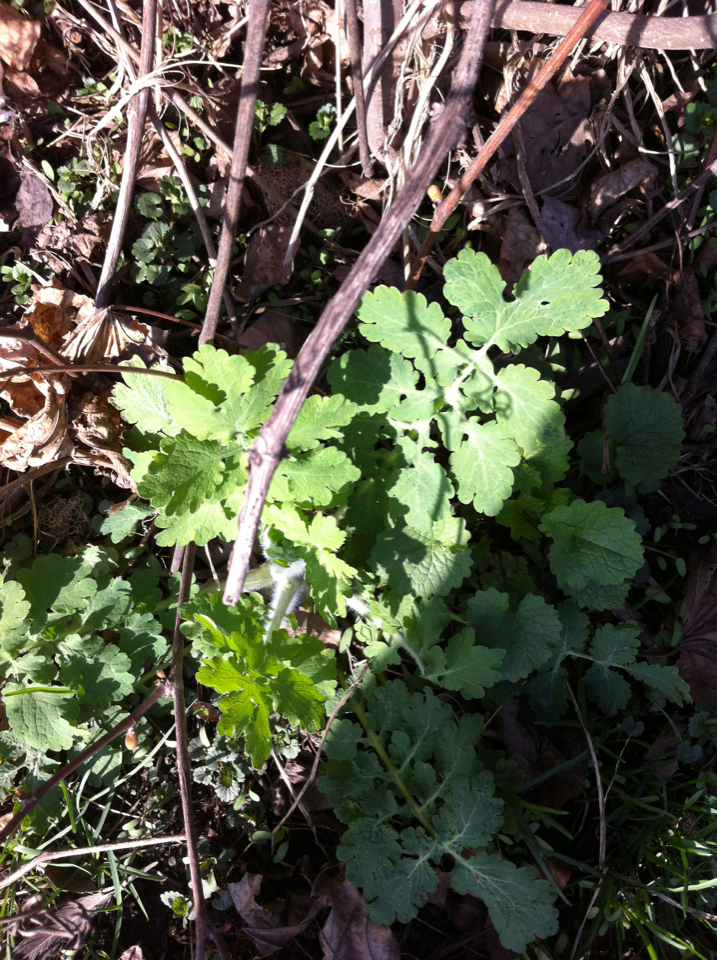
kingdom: Plantae
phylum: Tracheophyta
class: Magnoliopsida
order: Ranunculales
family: Papaveraceae
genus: Chelidonium
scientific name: Chelidonium majus
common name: Greater celandine
